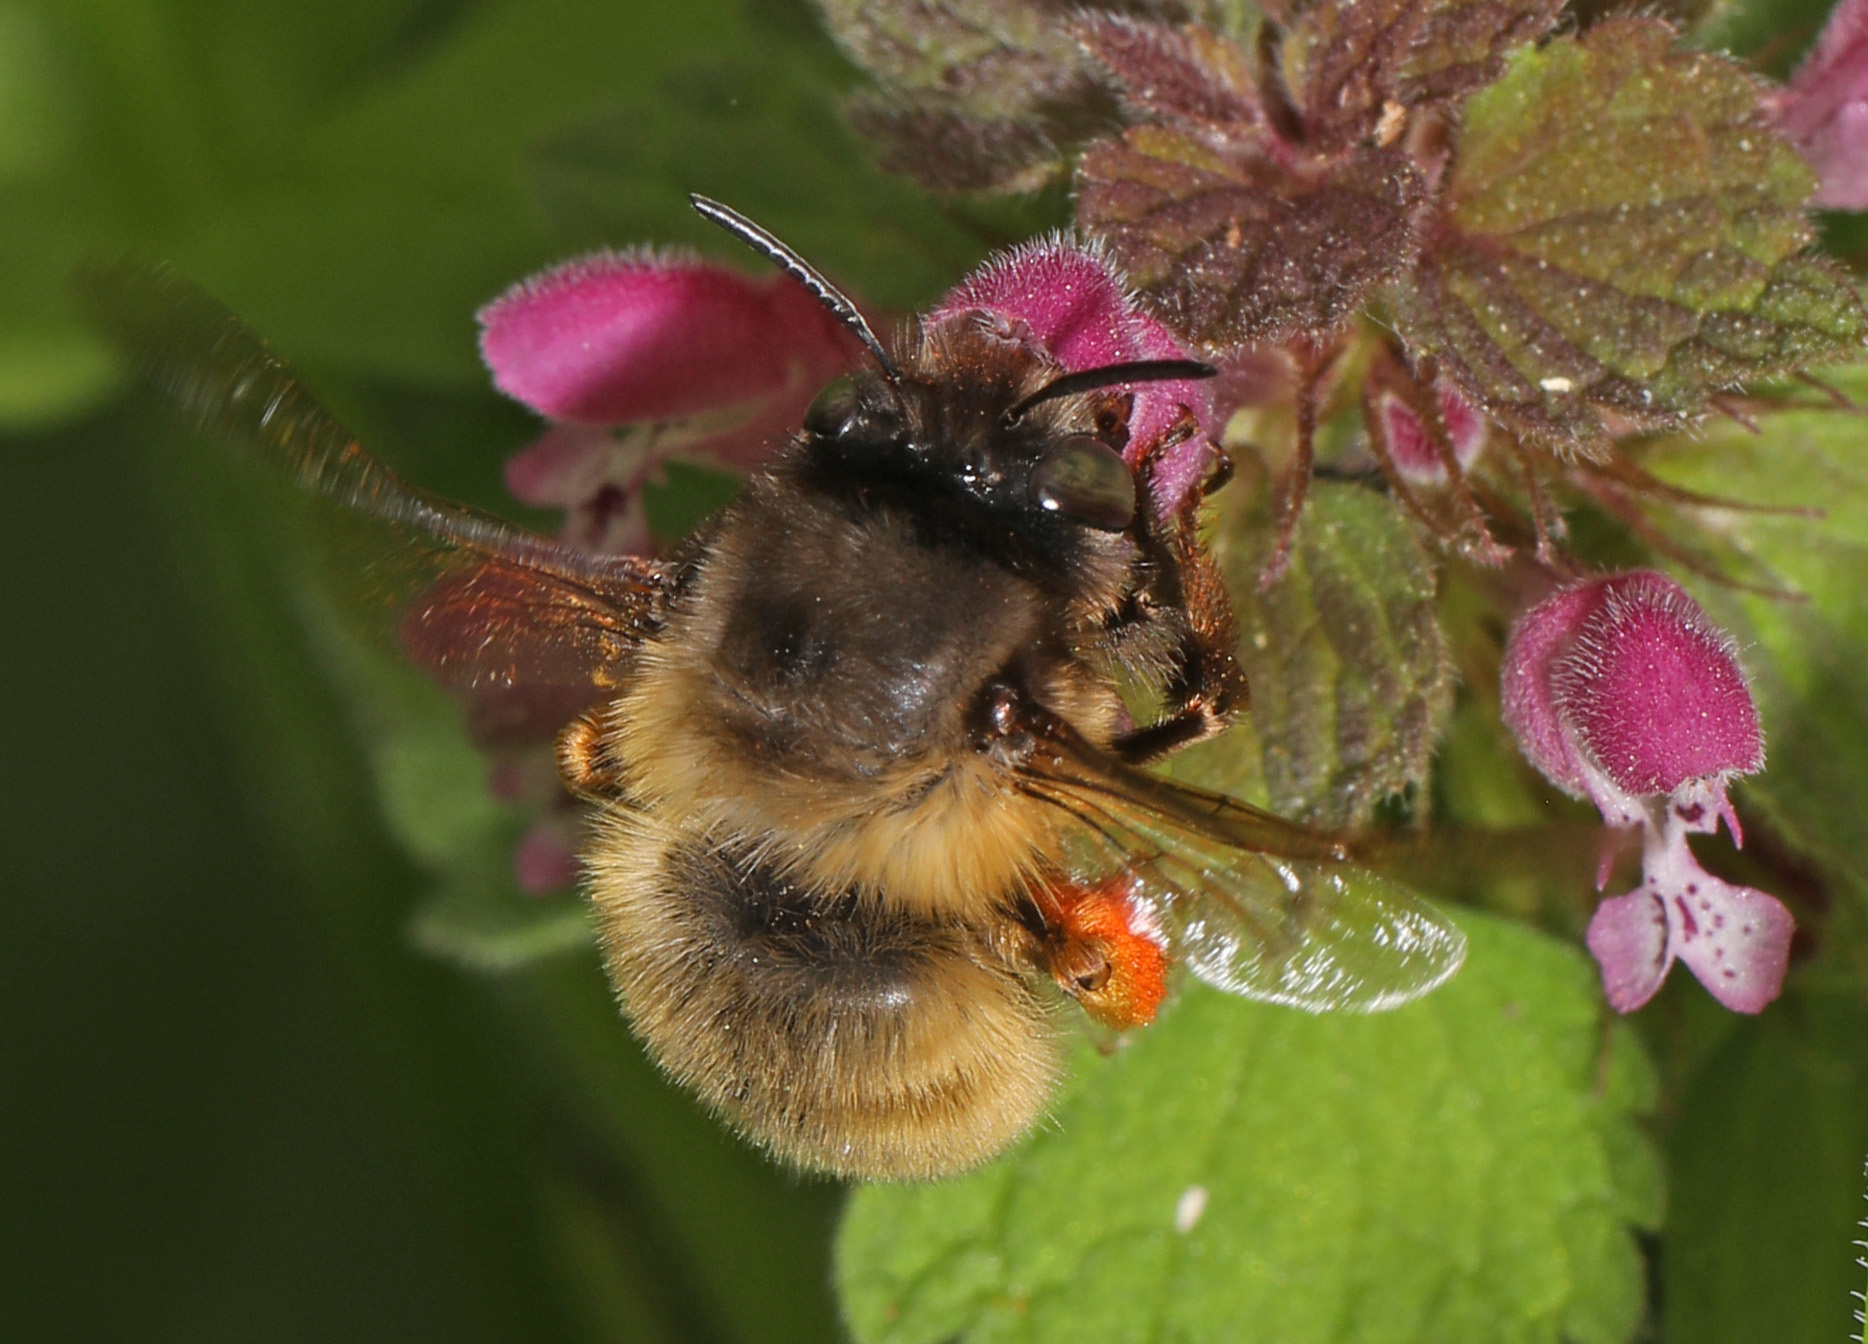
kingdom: Animalia
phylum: Arthropoda
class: Insecta
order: Hymenoptera
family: Apidae
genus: Anthophora
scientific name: Anthophora villosula
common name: Asian shaggy digger
